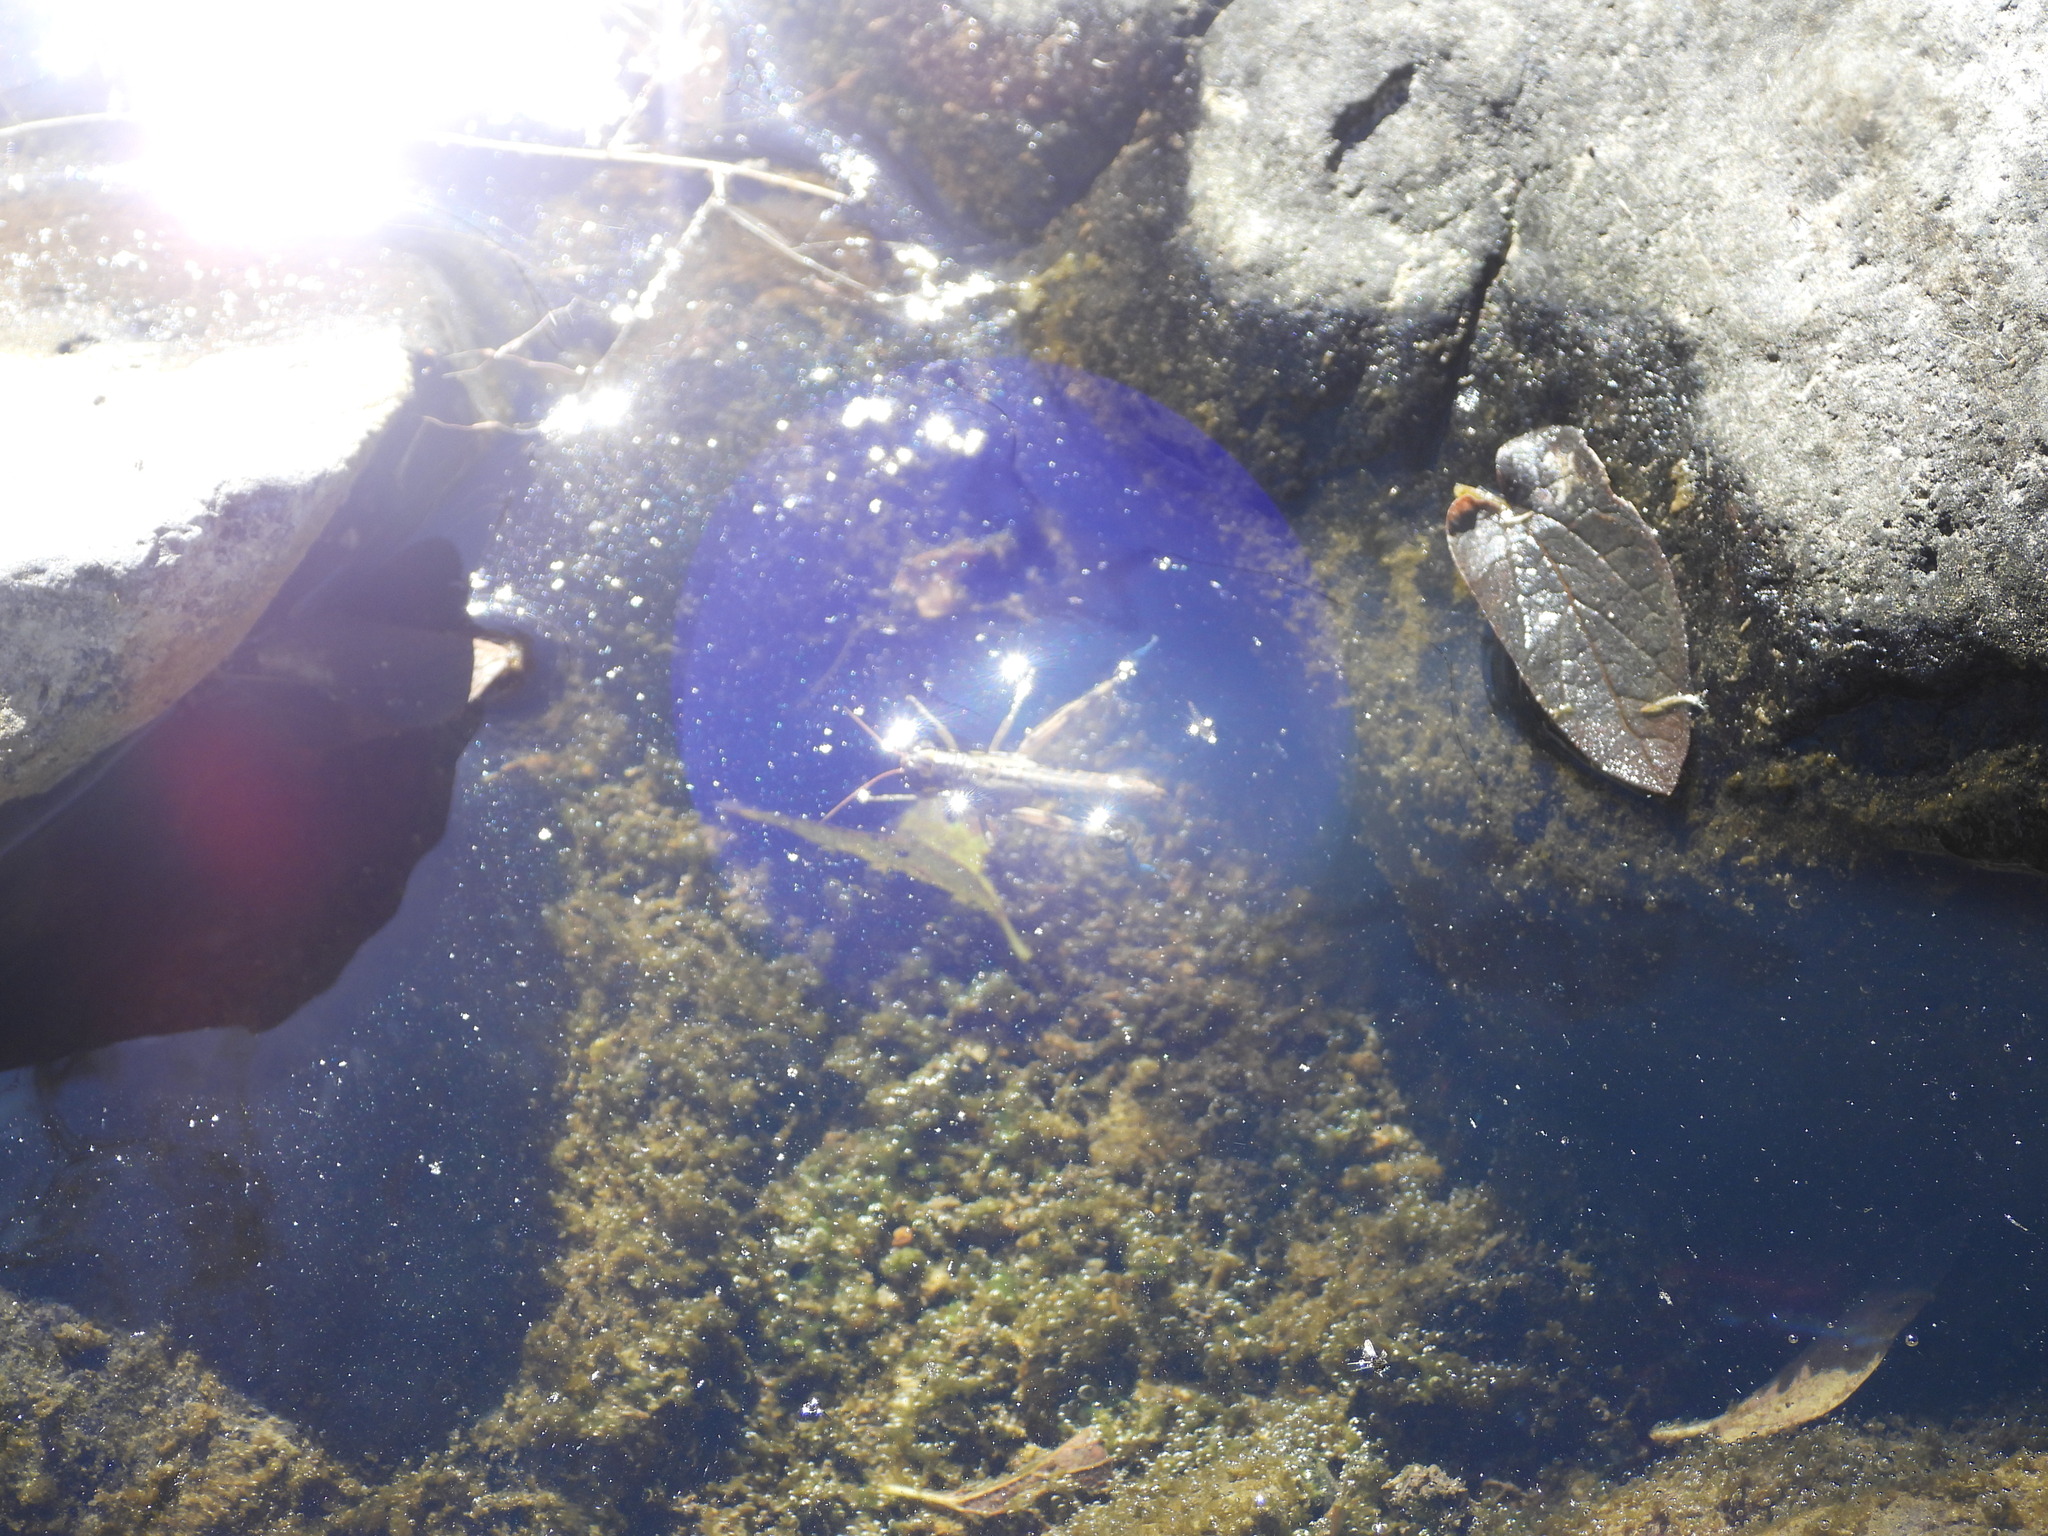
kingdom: Animalia
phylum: Arthropoda
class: Insecta
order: Orthoptera
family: Acrididae
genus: Melanoplus
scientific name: Melanoplus aridus
